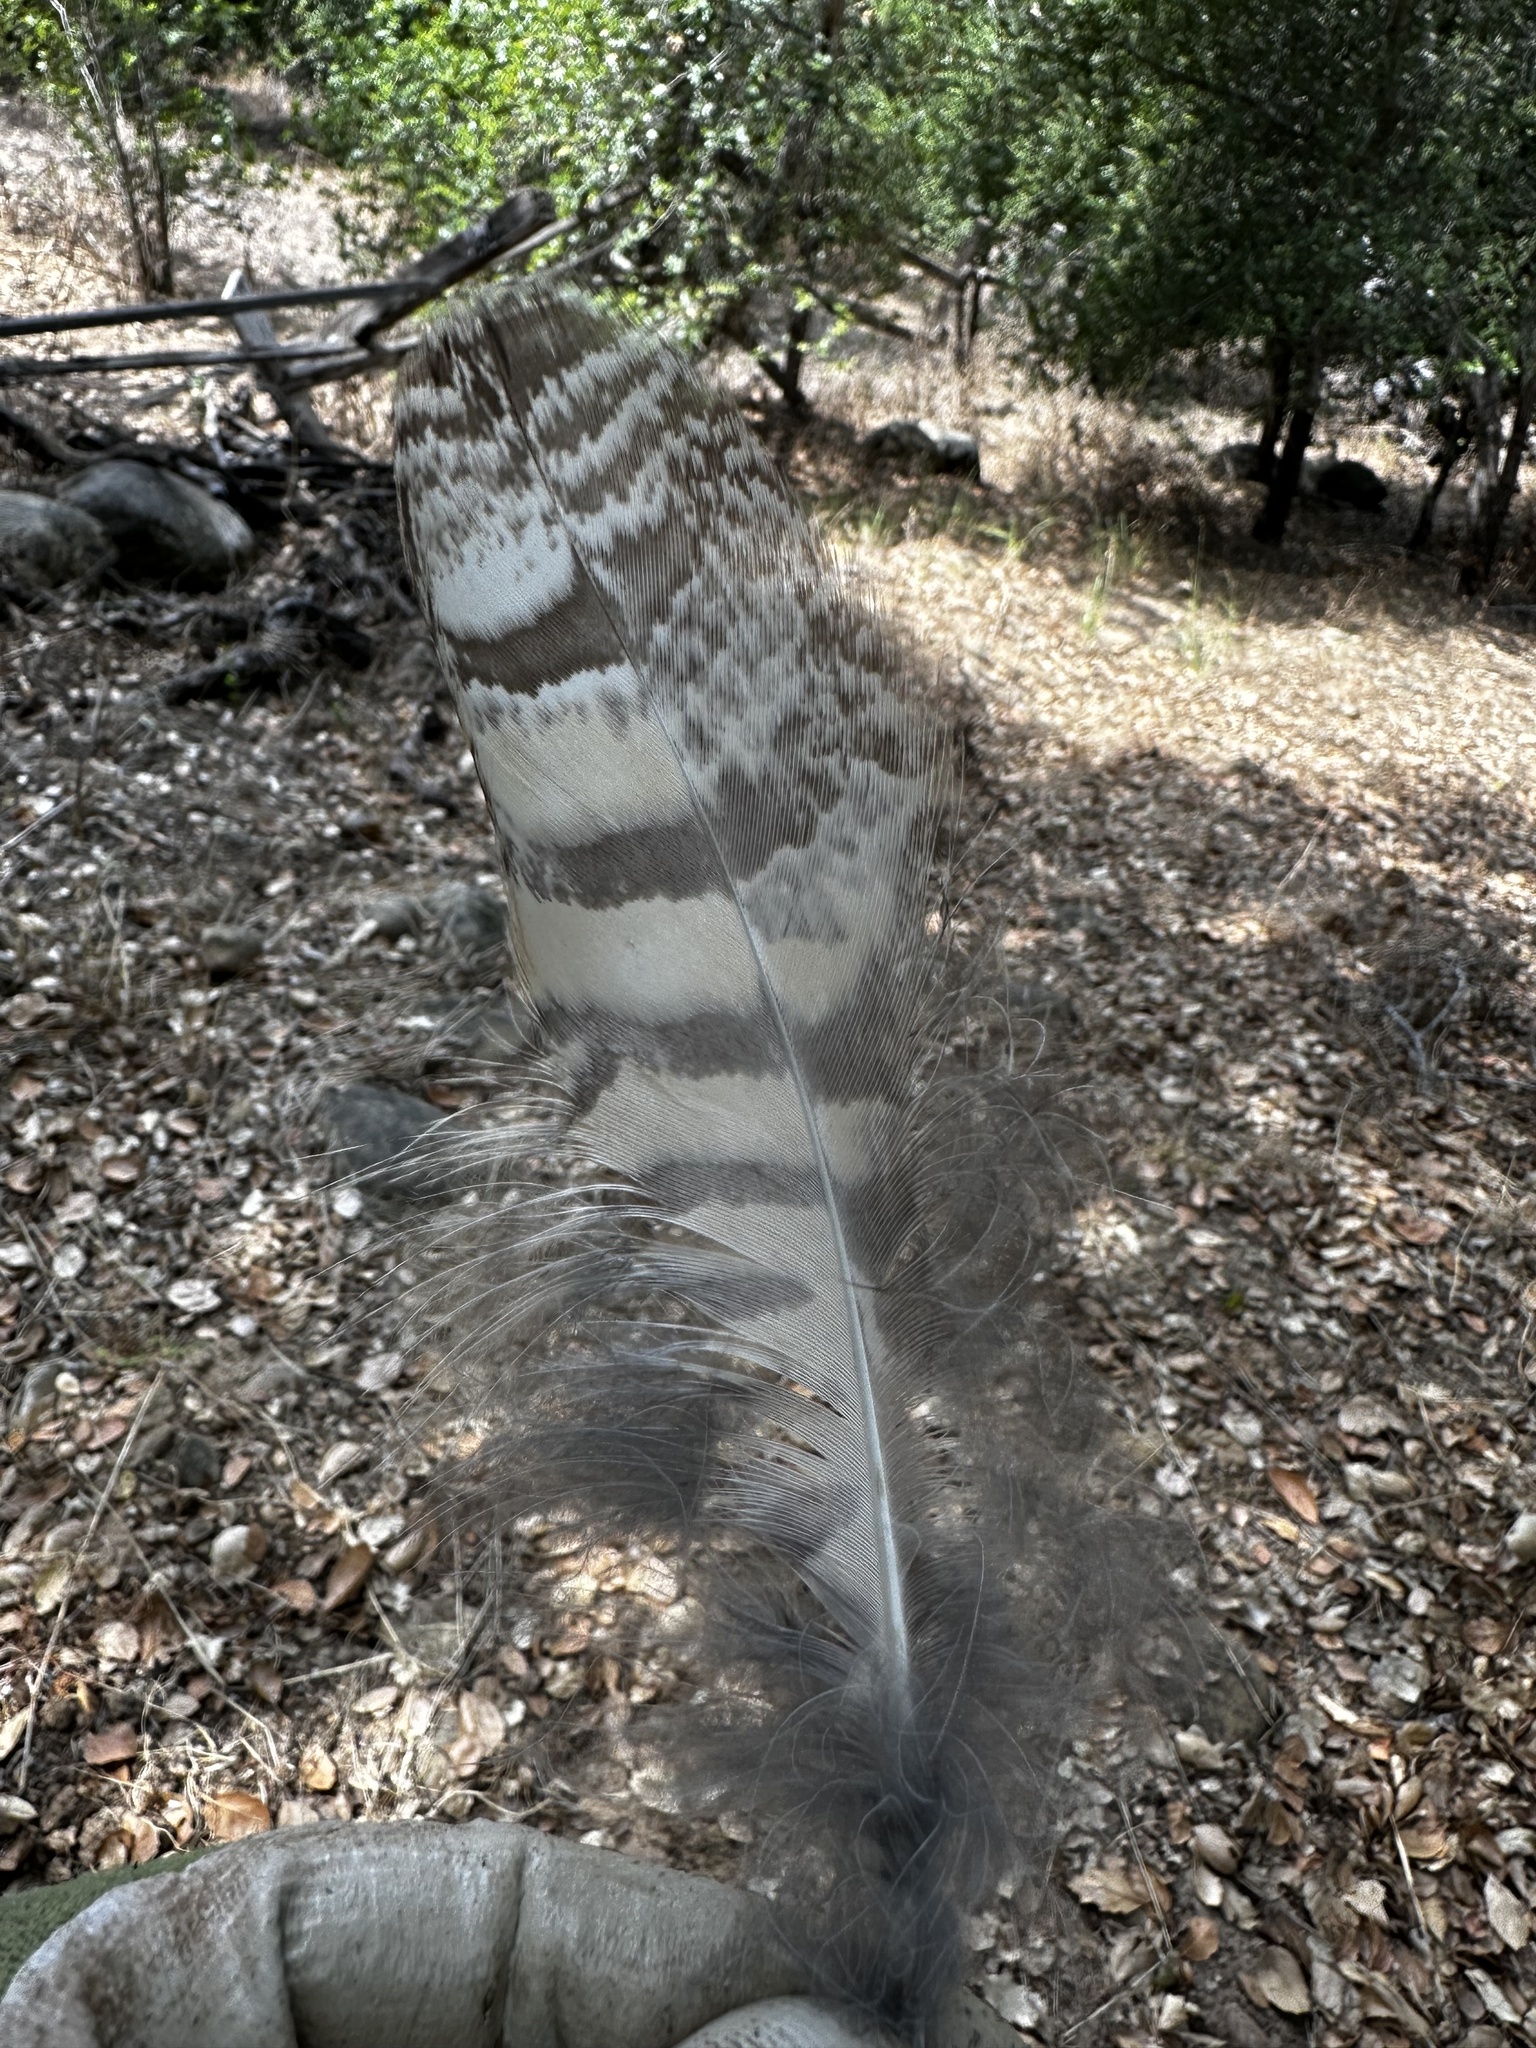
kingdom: Animalia
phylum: Chordata
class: Aves
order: Strigiformes
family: Strigidae
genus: Bubo
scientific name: Bubo virginianus
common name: Great horned owl
